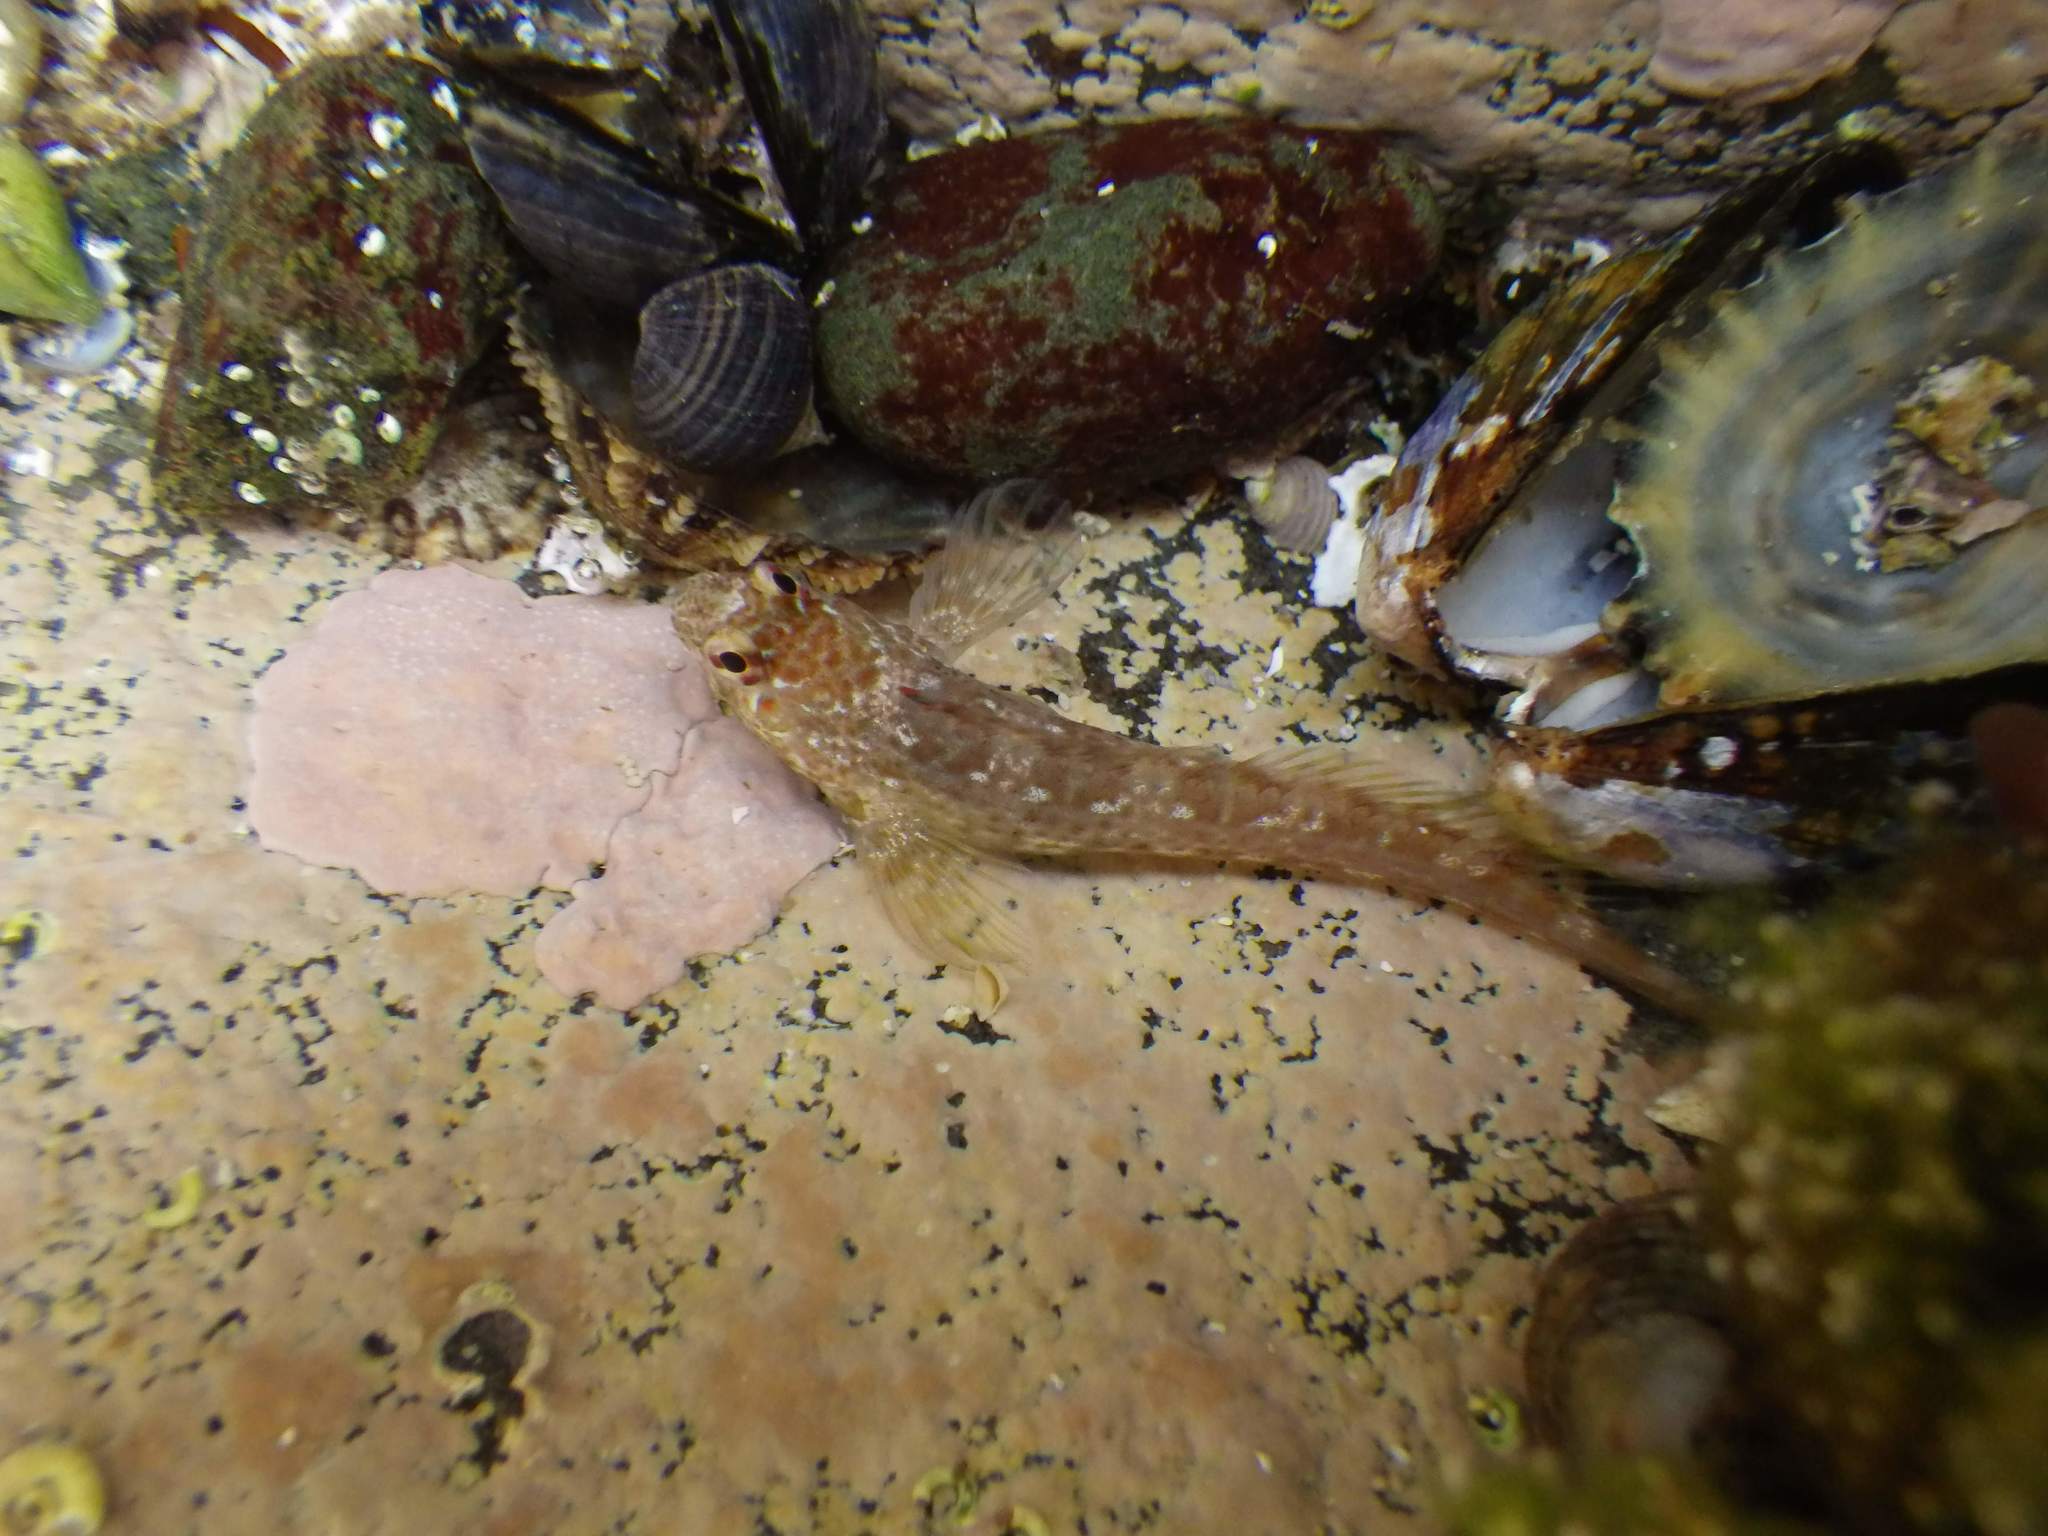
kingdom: Animalia
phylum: Chordata
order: Perciformes
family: Blenniidae
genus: Lipophrys
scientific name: Lipophrys pholis
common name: Shanny
